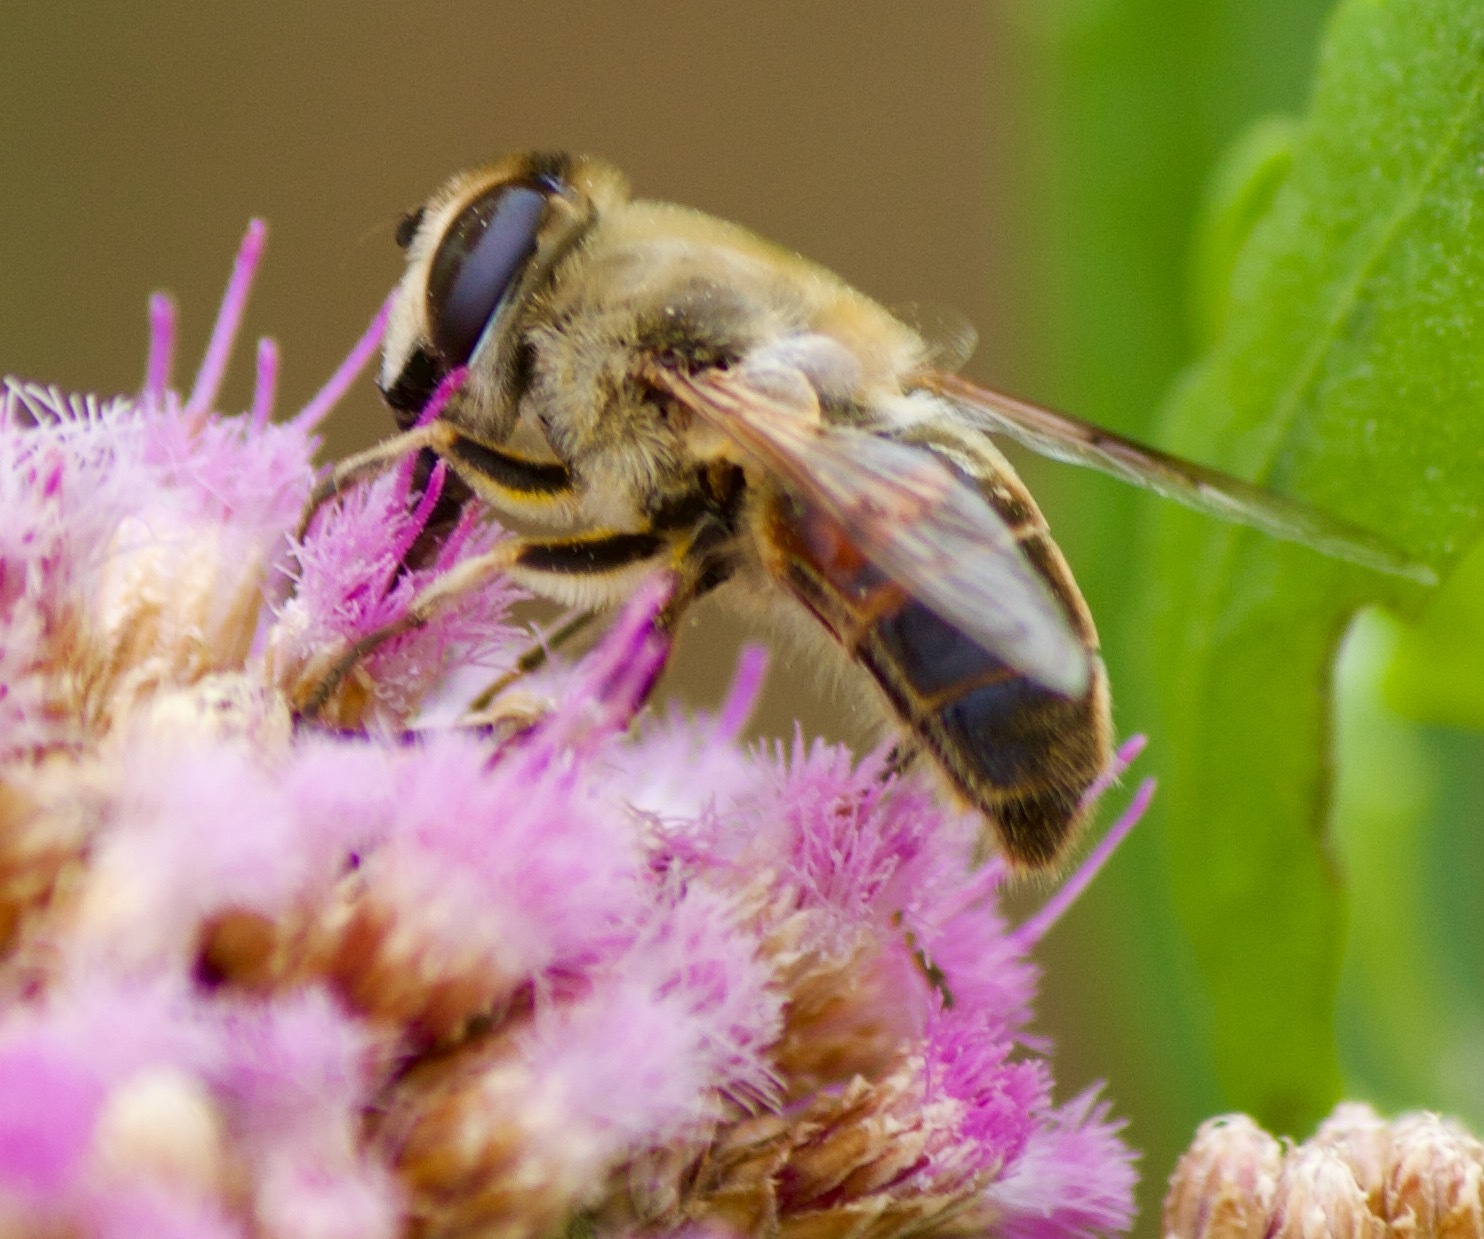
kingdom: Animalia
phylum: Arthropoda
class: Insecta
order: Diptera
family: Syrphidae
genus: Eristalis
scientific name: Eristalis tenax
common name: Drone fly
